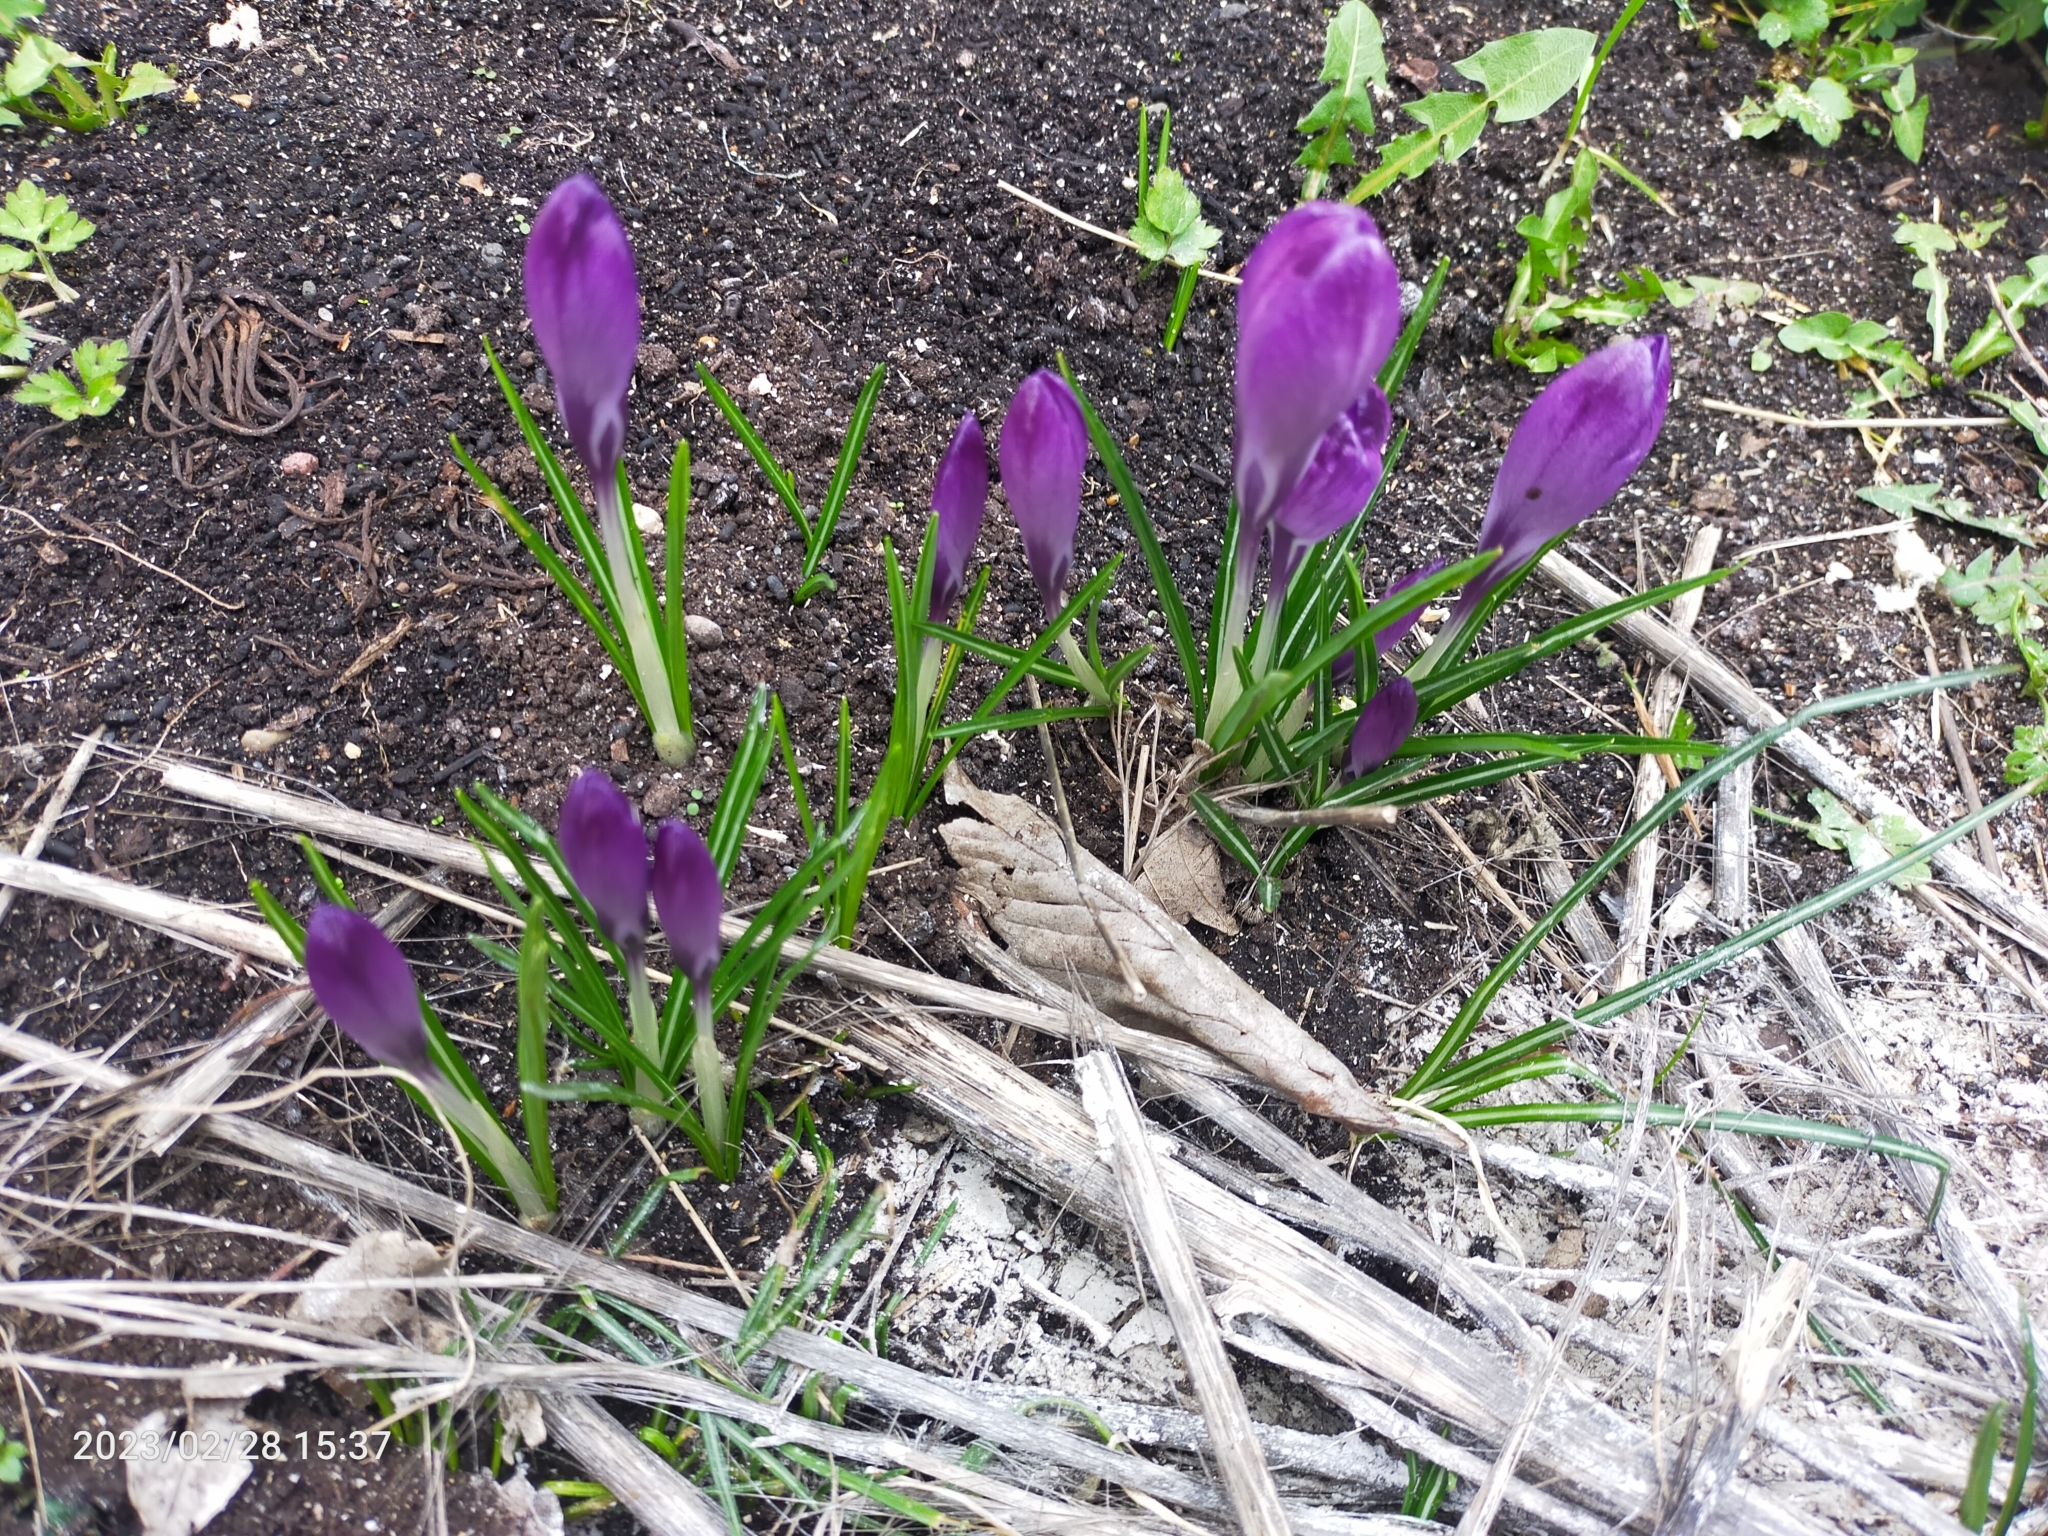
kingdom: Plantae
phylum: Tracheophyta
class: Liliopsida
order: Asparagales
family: Iridaceae
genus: Crocus
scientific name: Crocus neapolitanus
